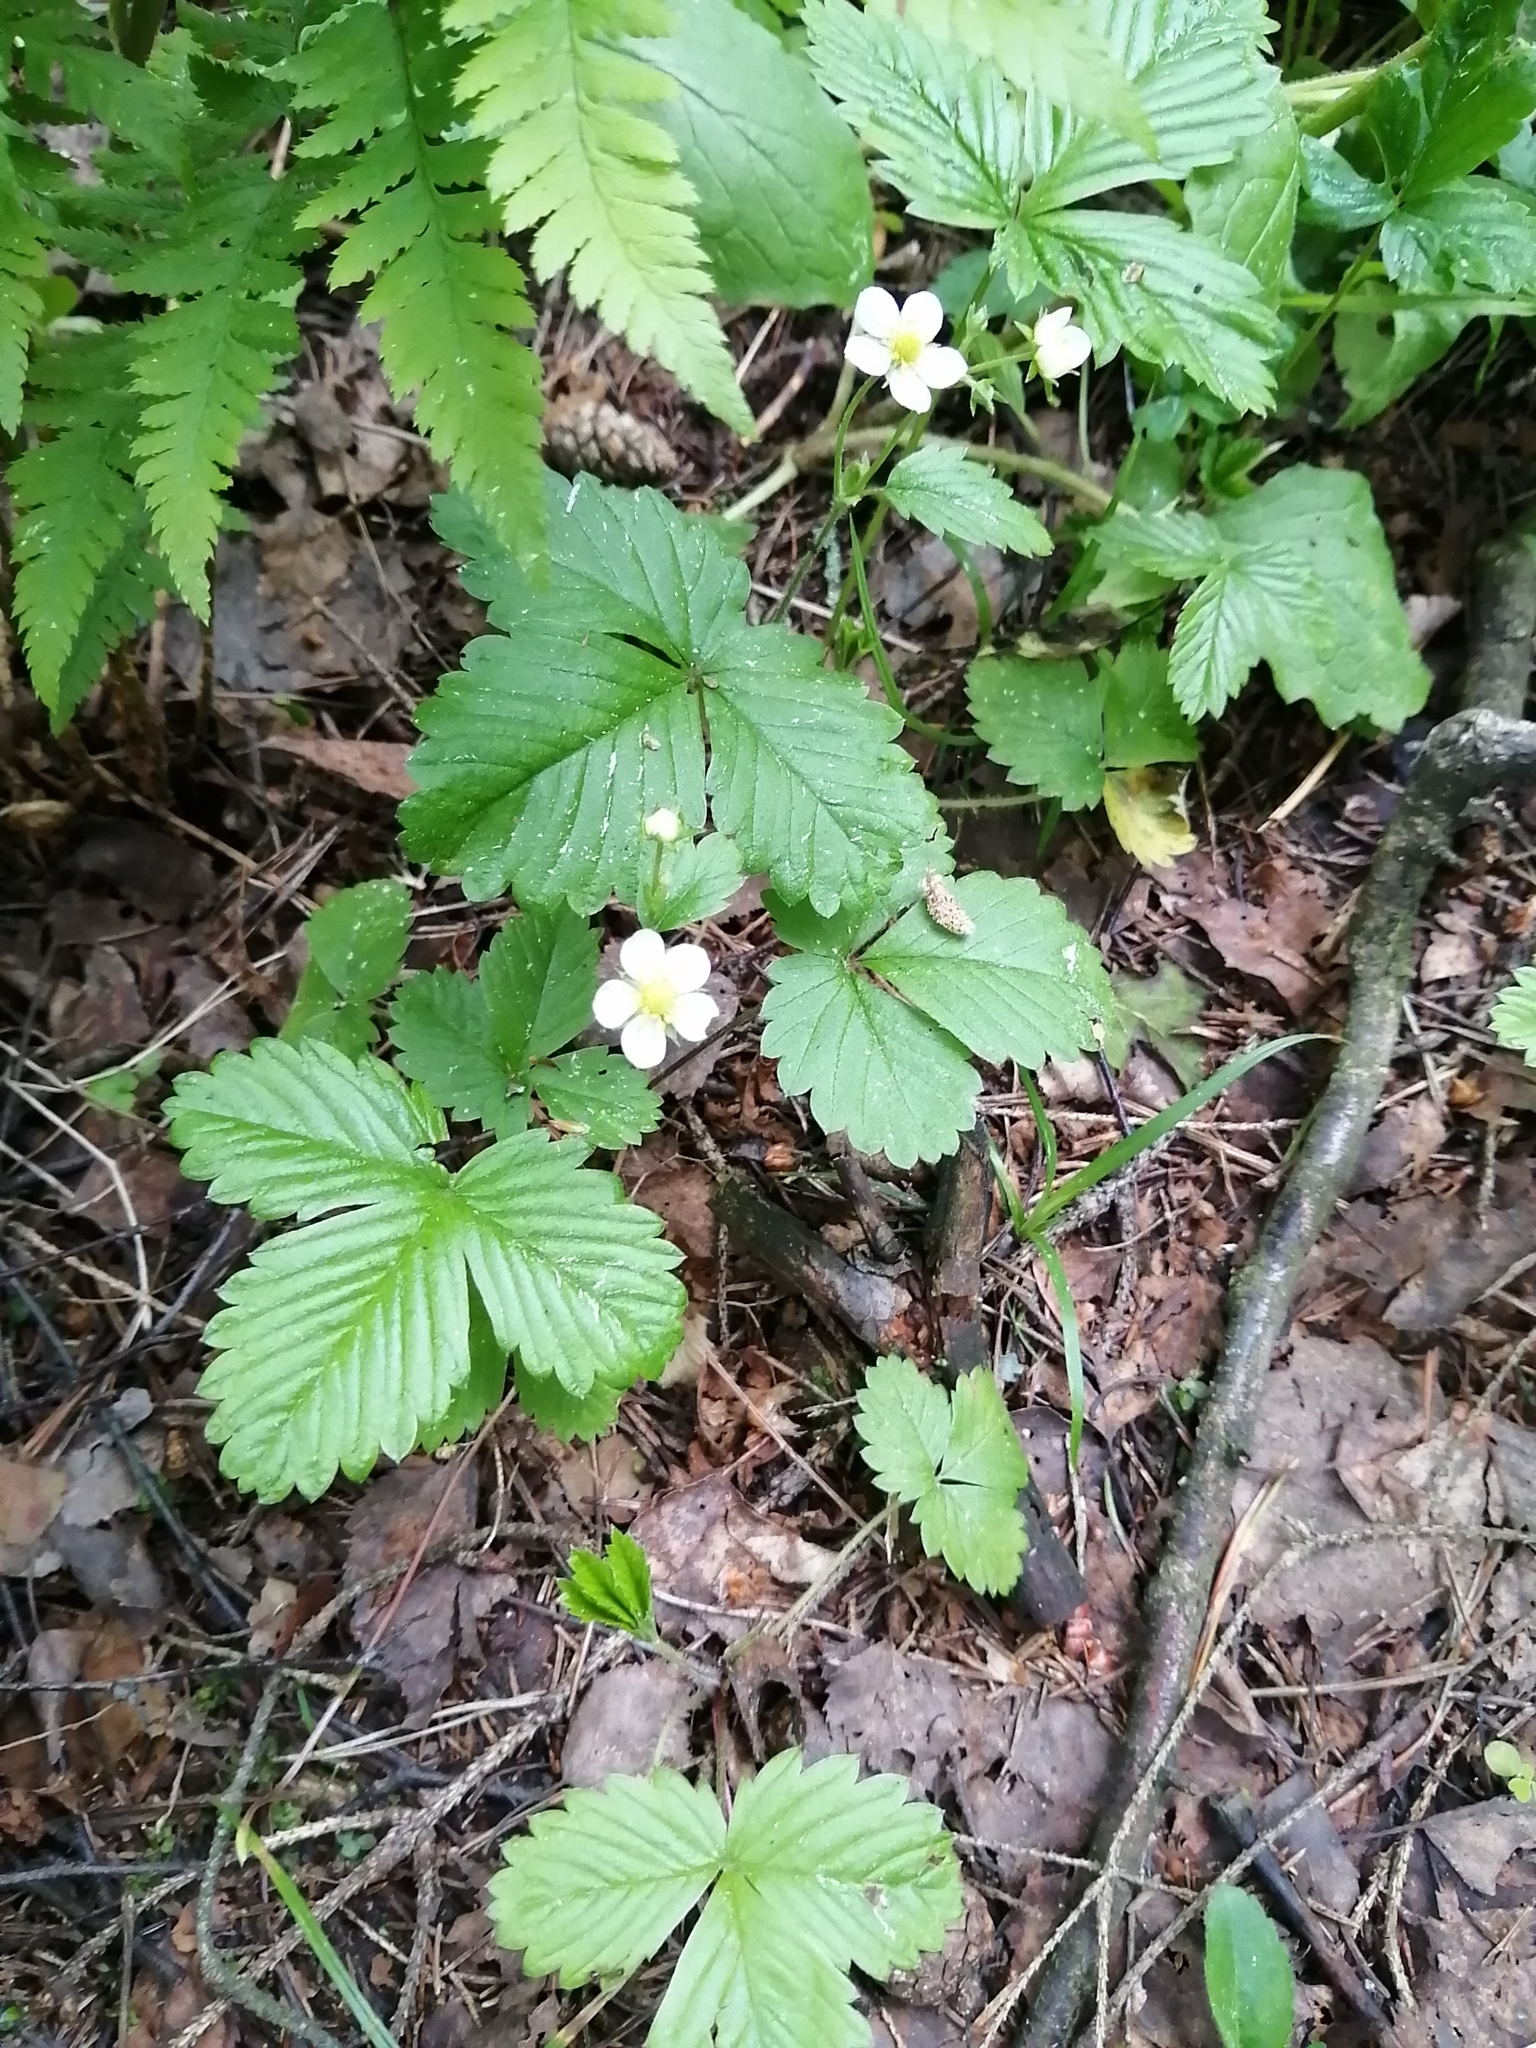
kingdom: Plantae
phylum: Tracheophyta
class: Magnoliopsida
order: Rosales
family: Rosaceae
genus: Fragaria
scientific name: Fragaria vesca
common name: Wild strawberry
